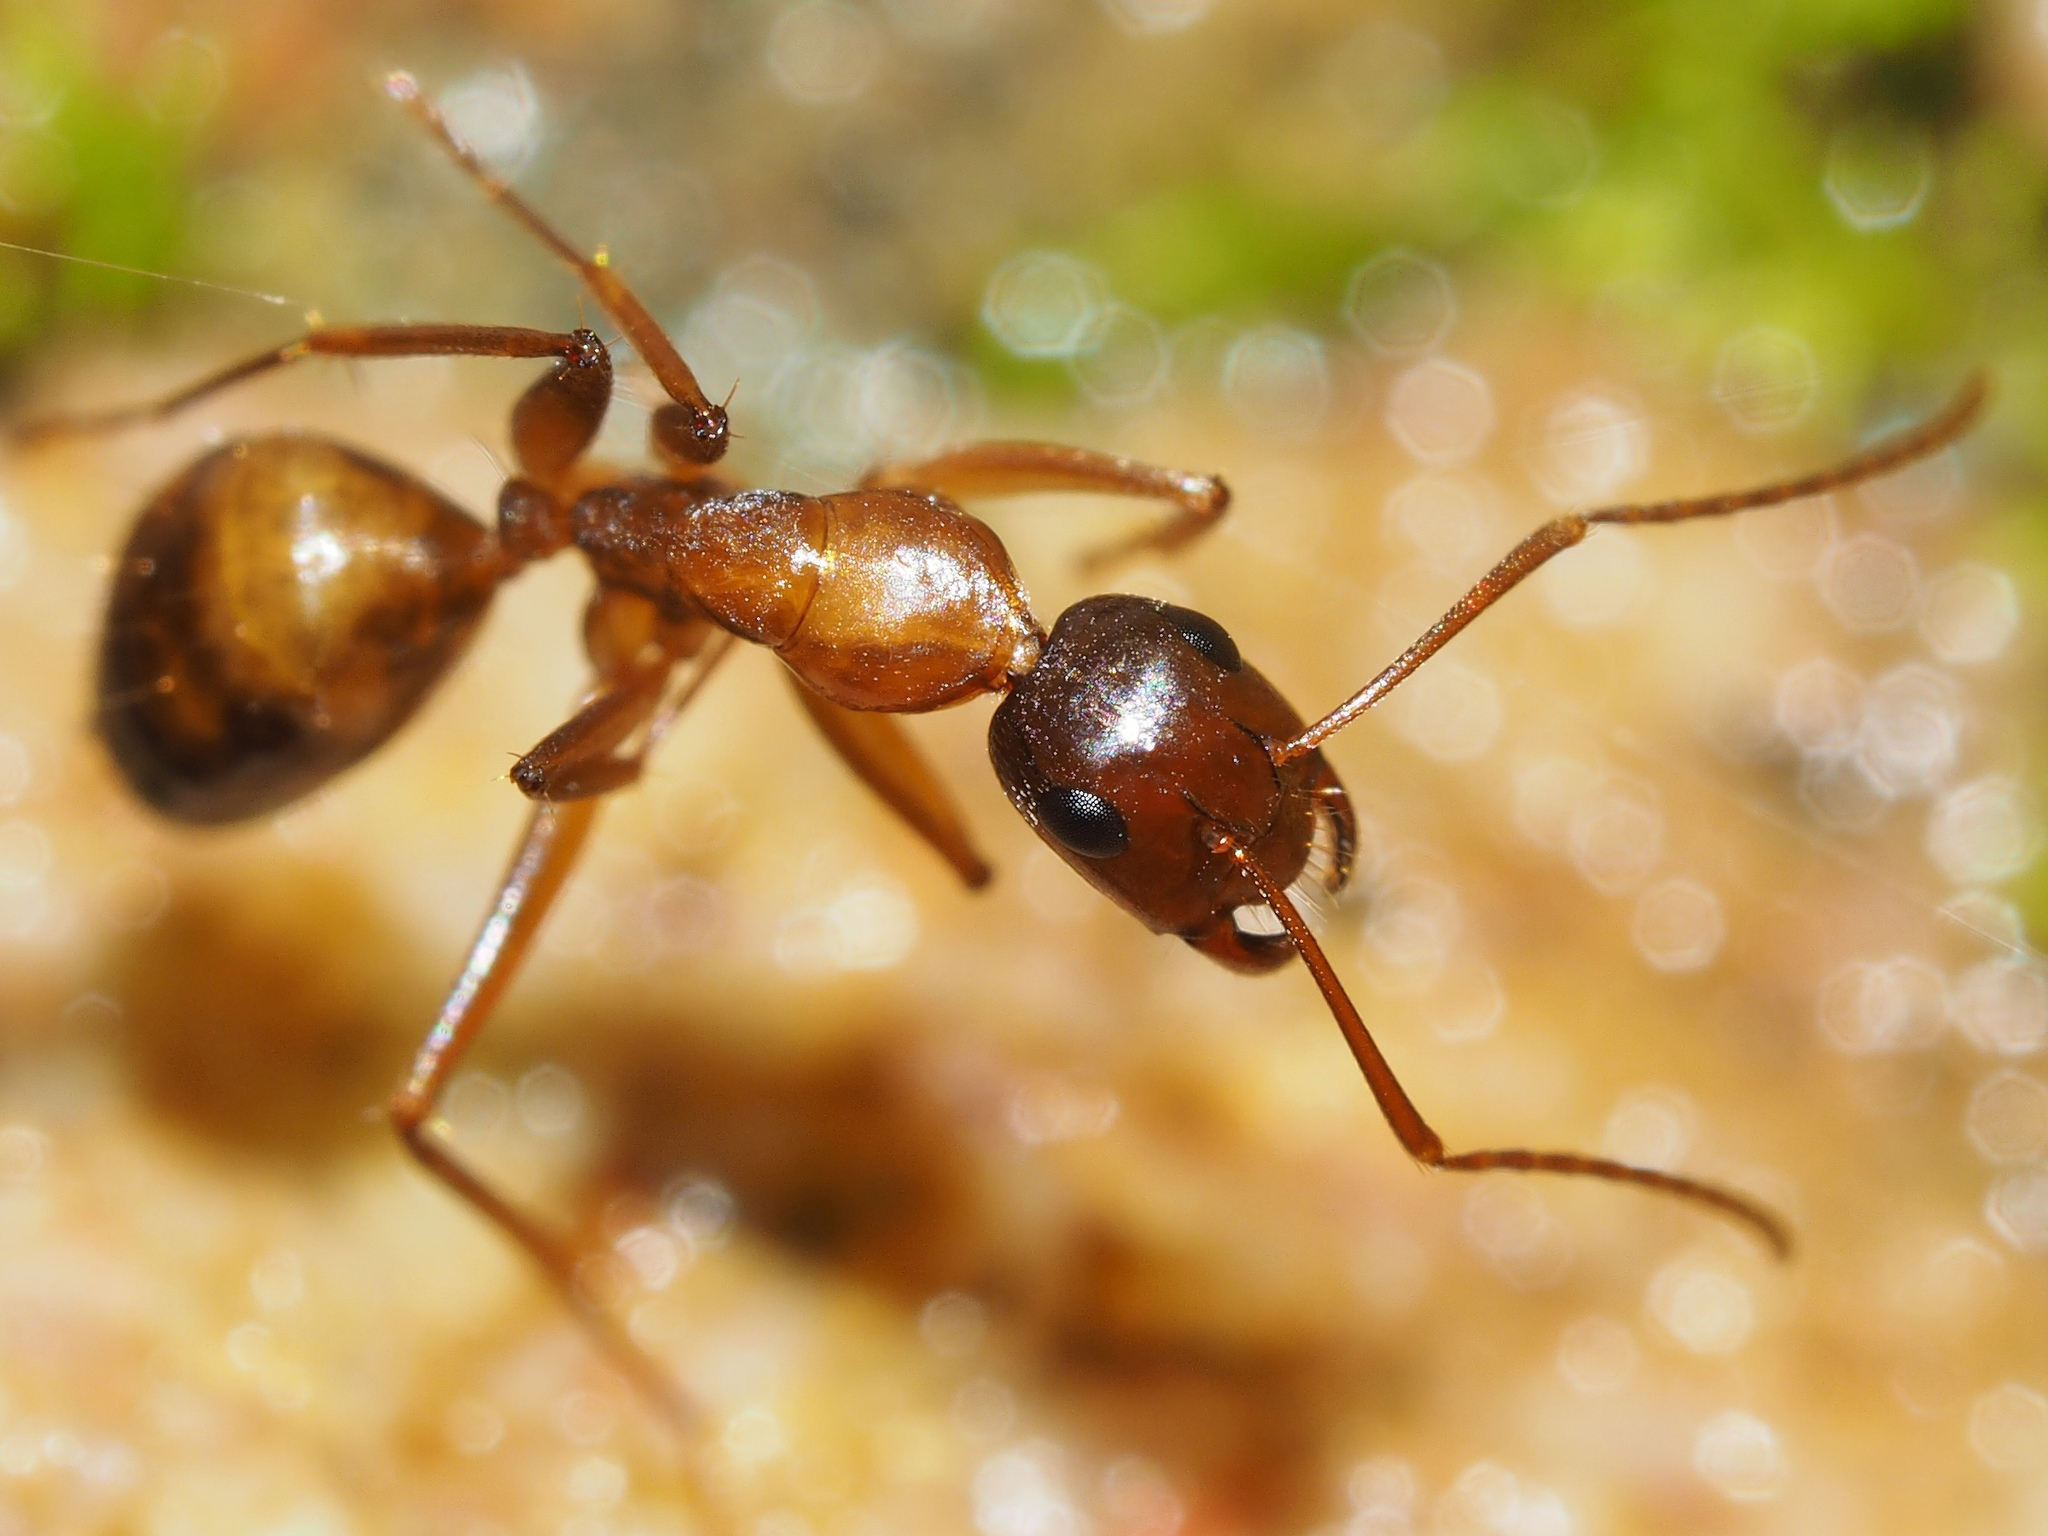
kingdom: Animalia
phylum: Arthropoda
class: Insecta
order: Hymenoptera
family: Formicidae
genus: Camponotus
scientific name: Camponotus nylanderi
